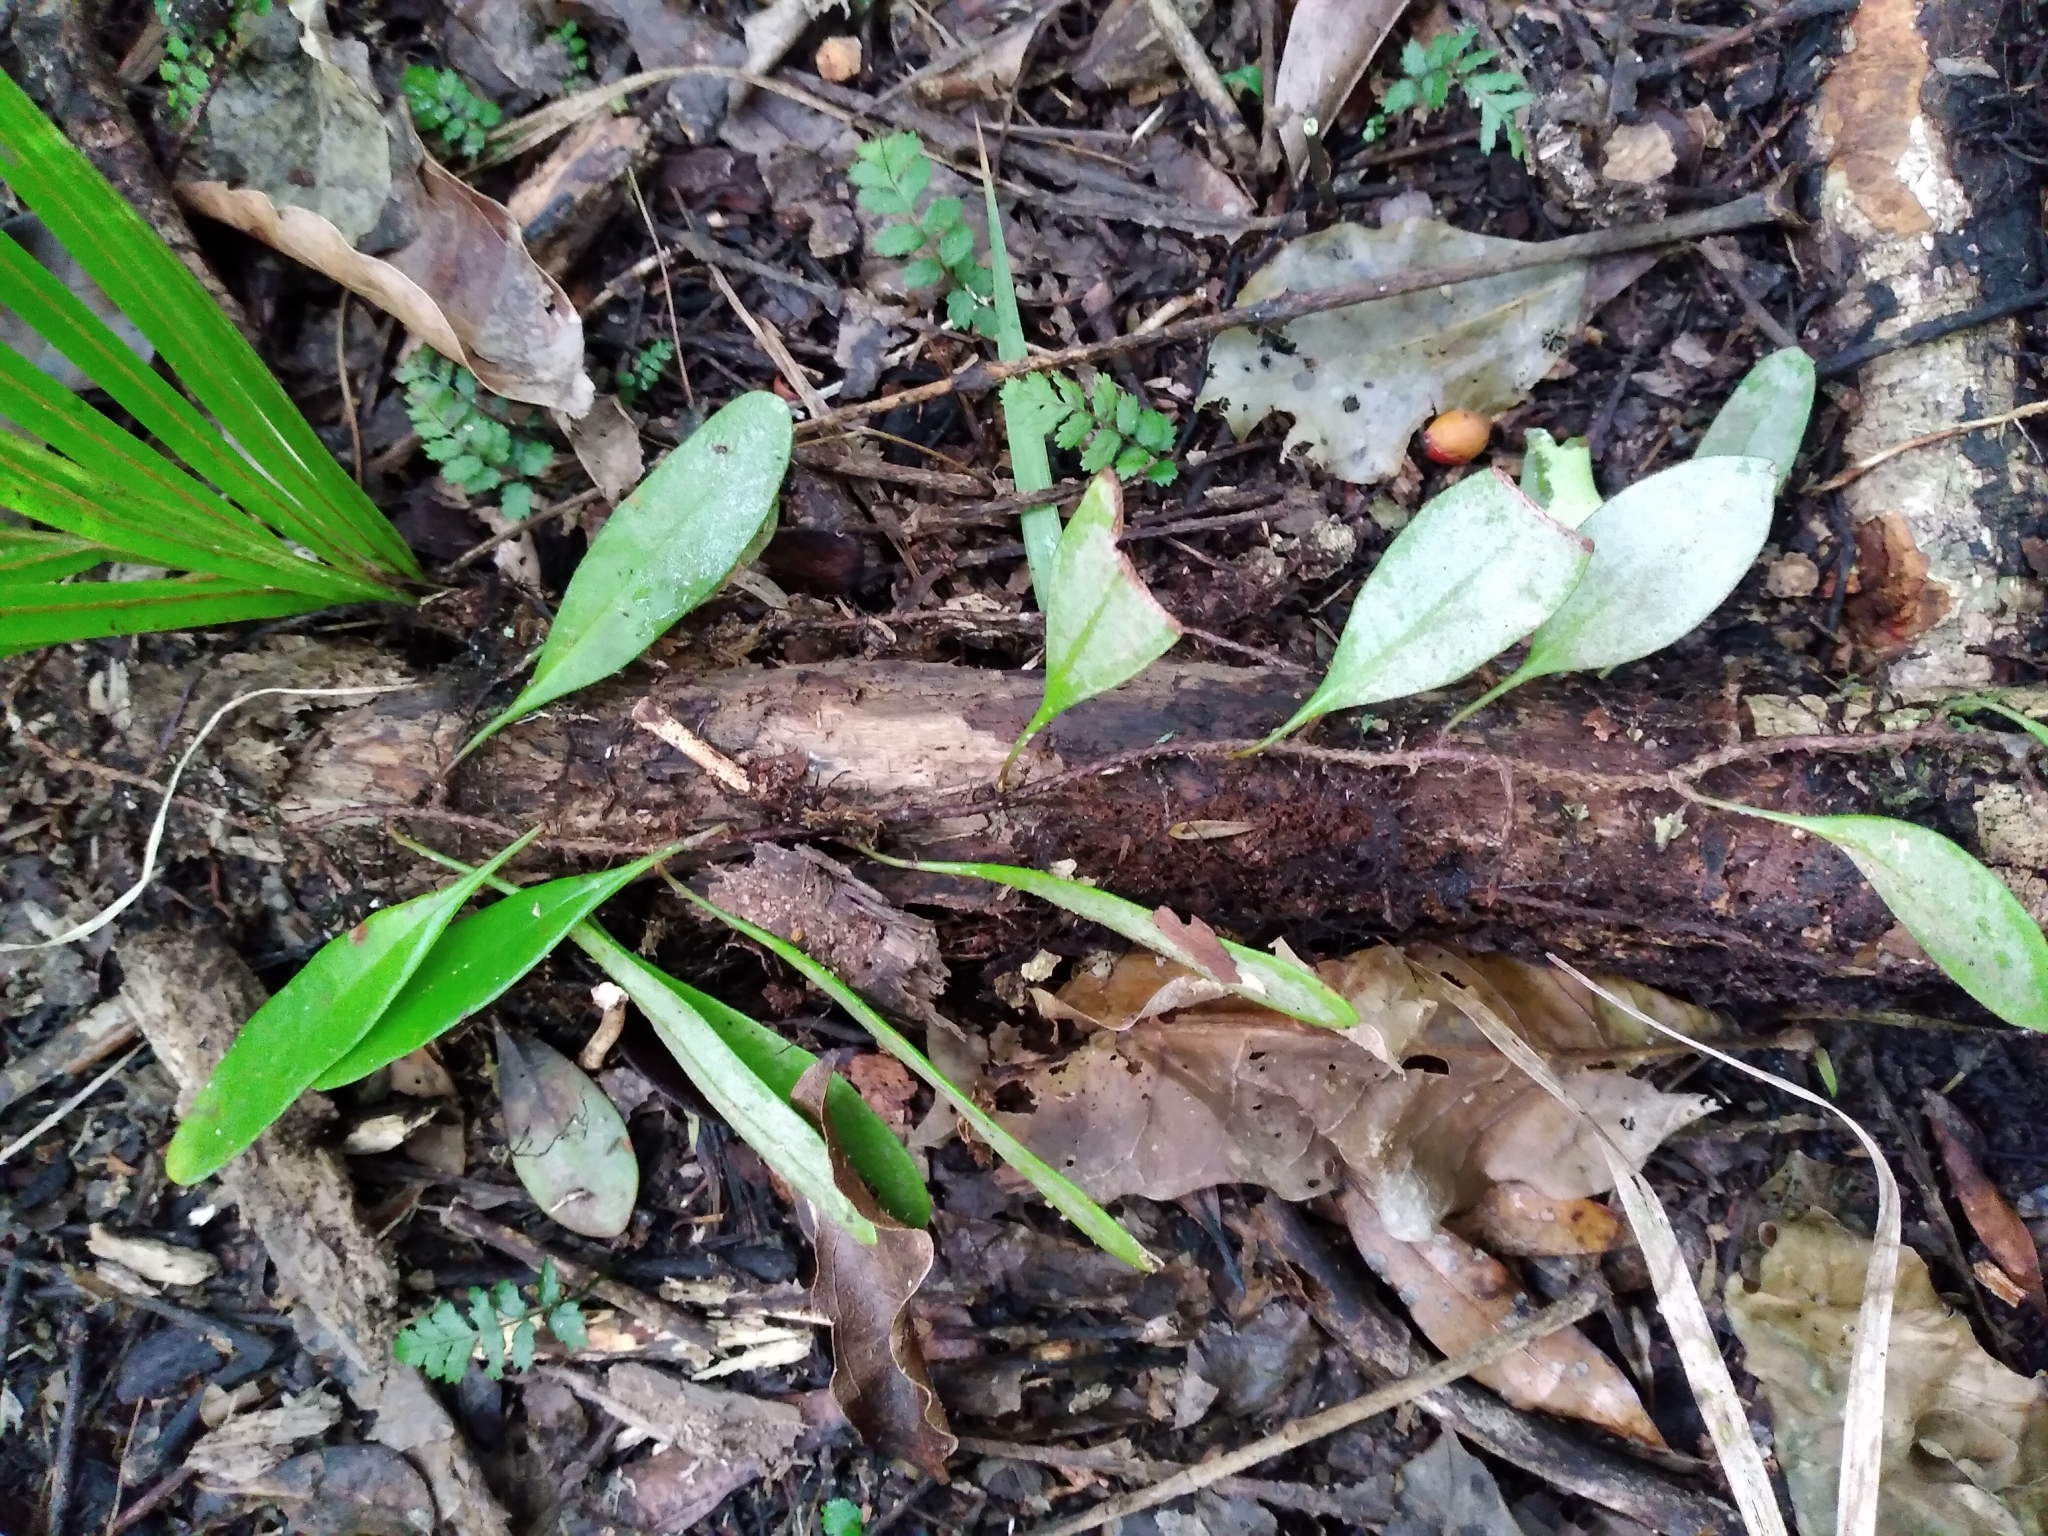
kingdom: Plantae
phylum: Tracheophyta
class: Polypodiopsida
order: Polypodiales
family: Polypodiaceae
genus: Pyrrosia
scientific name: Pyrrosia eleagnifolia
